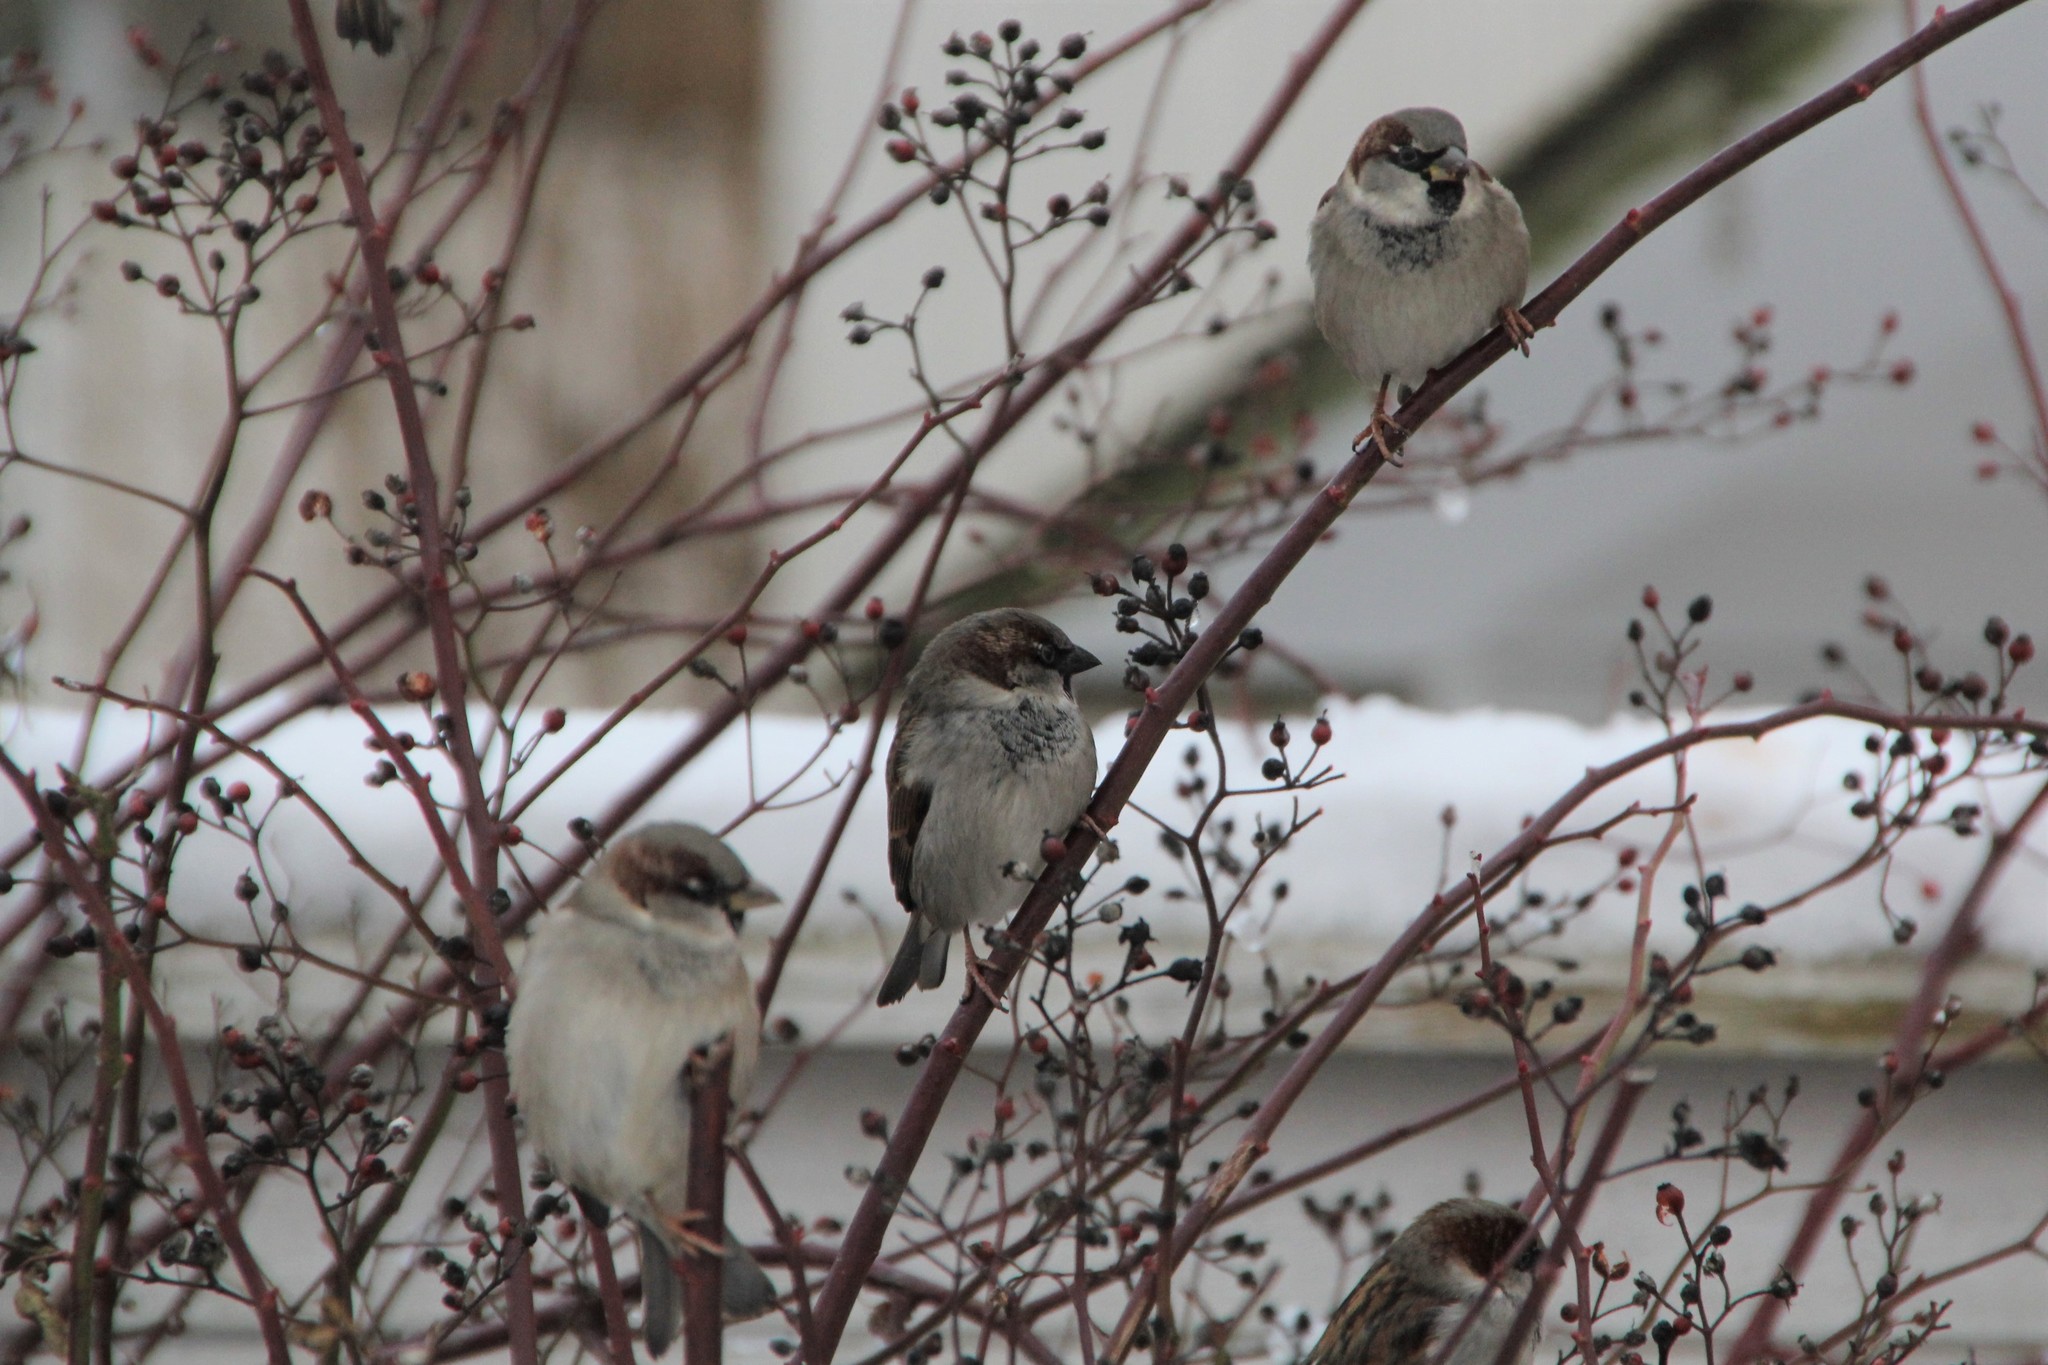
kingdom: Animalia
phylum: Chordata
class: Aves
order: Passeriformes
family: Passeridae
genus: Passer
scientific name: Passer domesticus
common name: House sparrow
